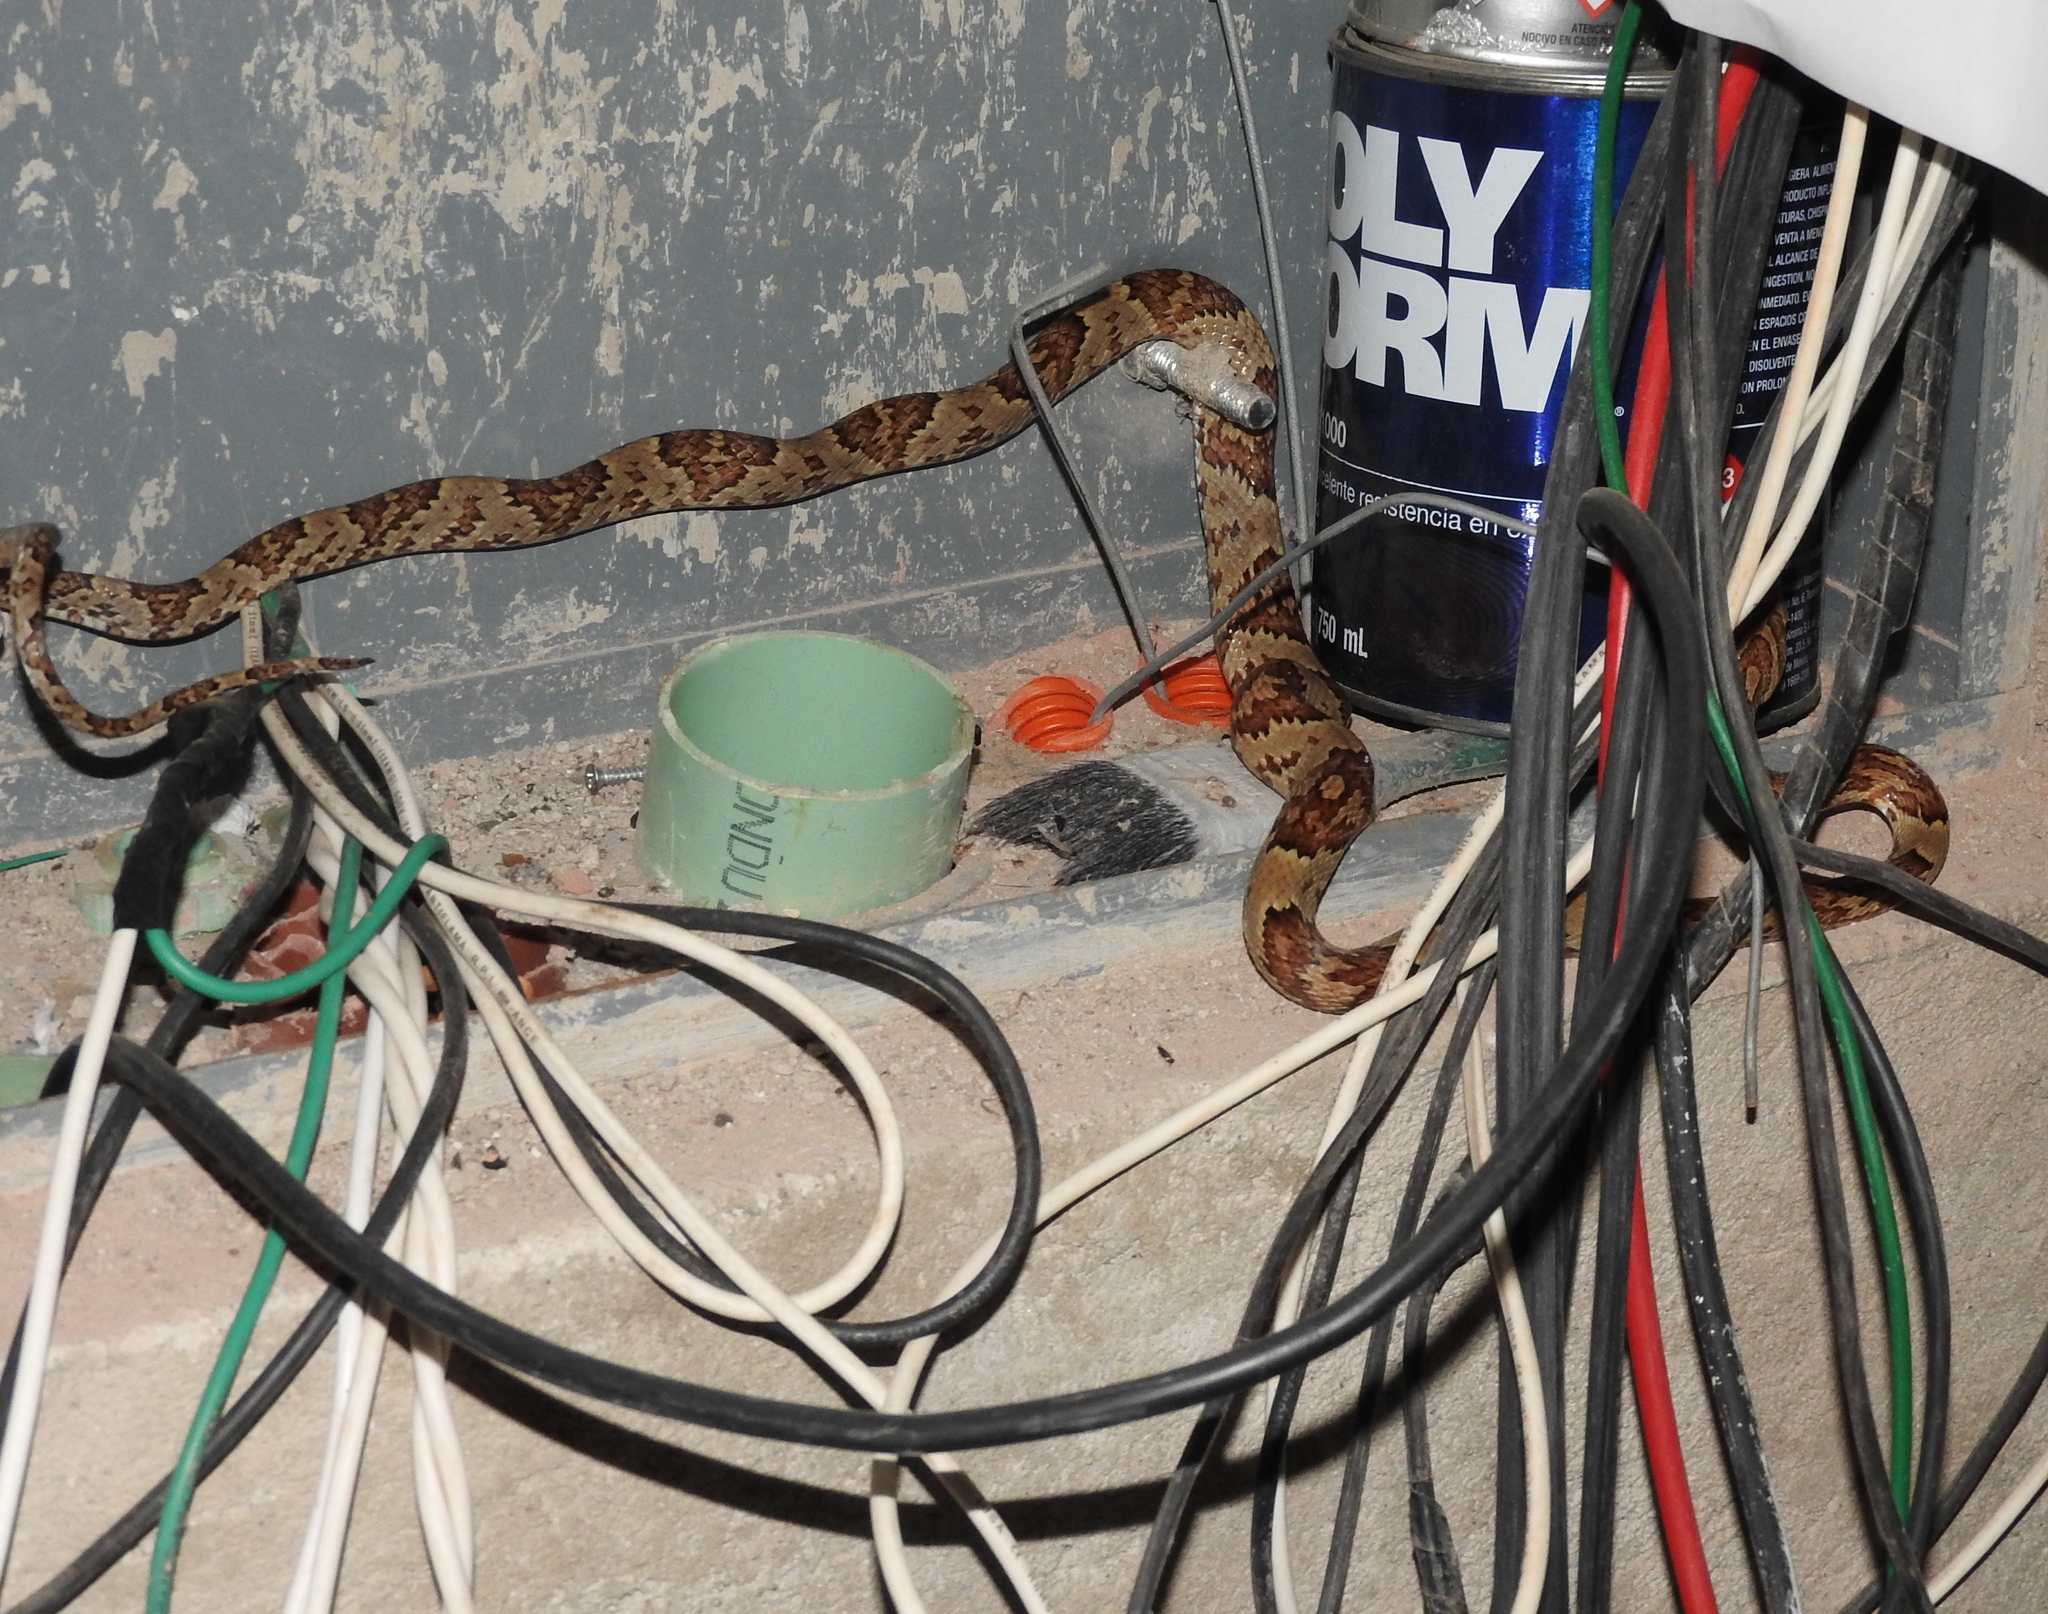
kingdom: Animalia
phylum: Chordata
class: Squamata
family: Colubridae
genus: Trimorphodon
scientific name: Trimorphodon paucimaculatus
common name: Sinaloan lyresnake
